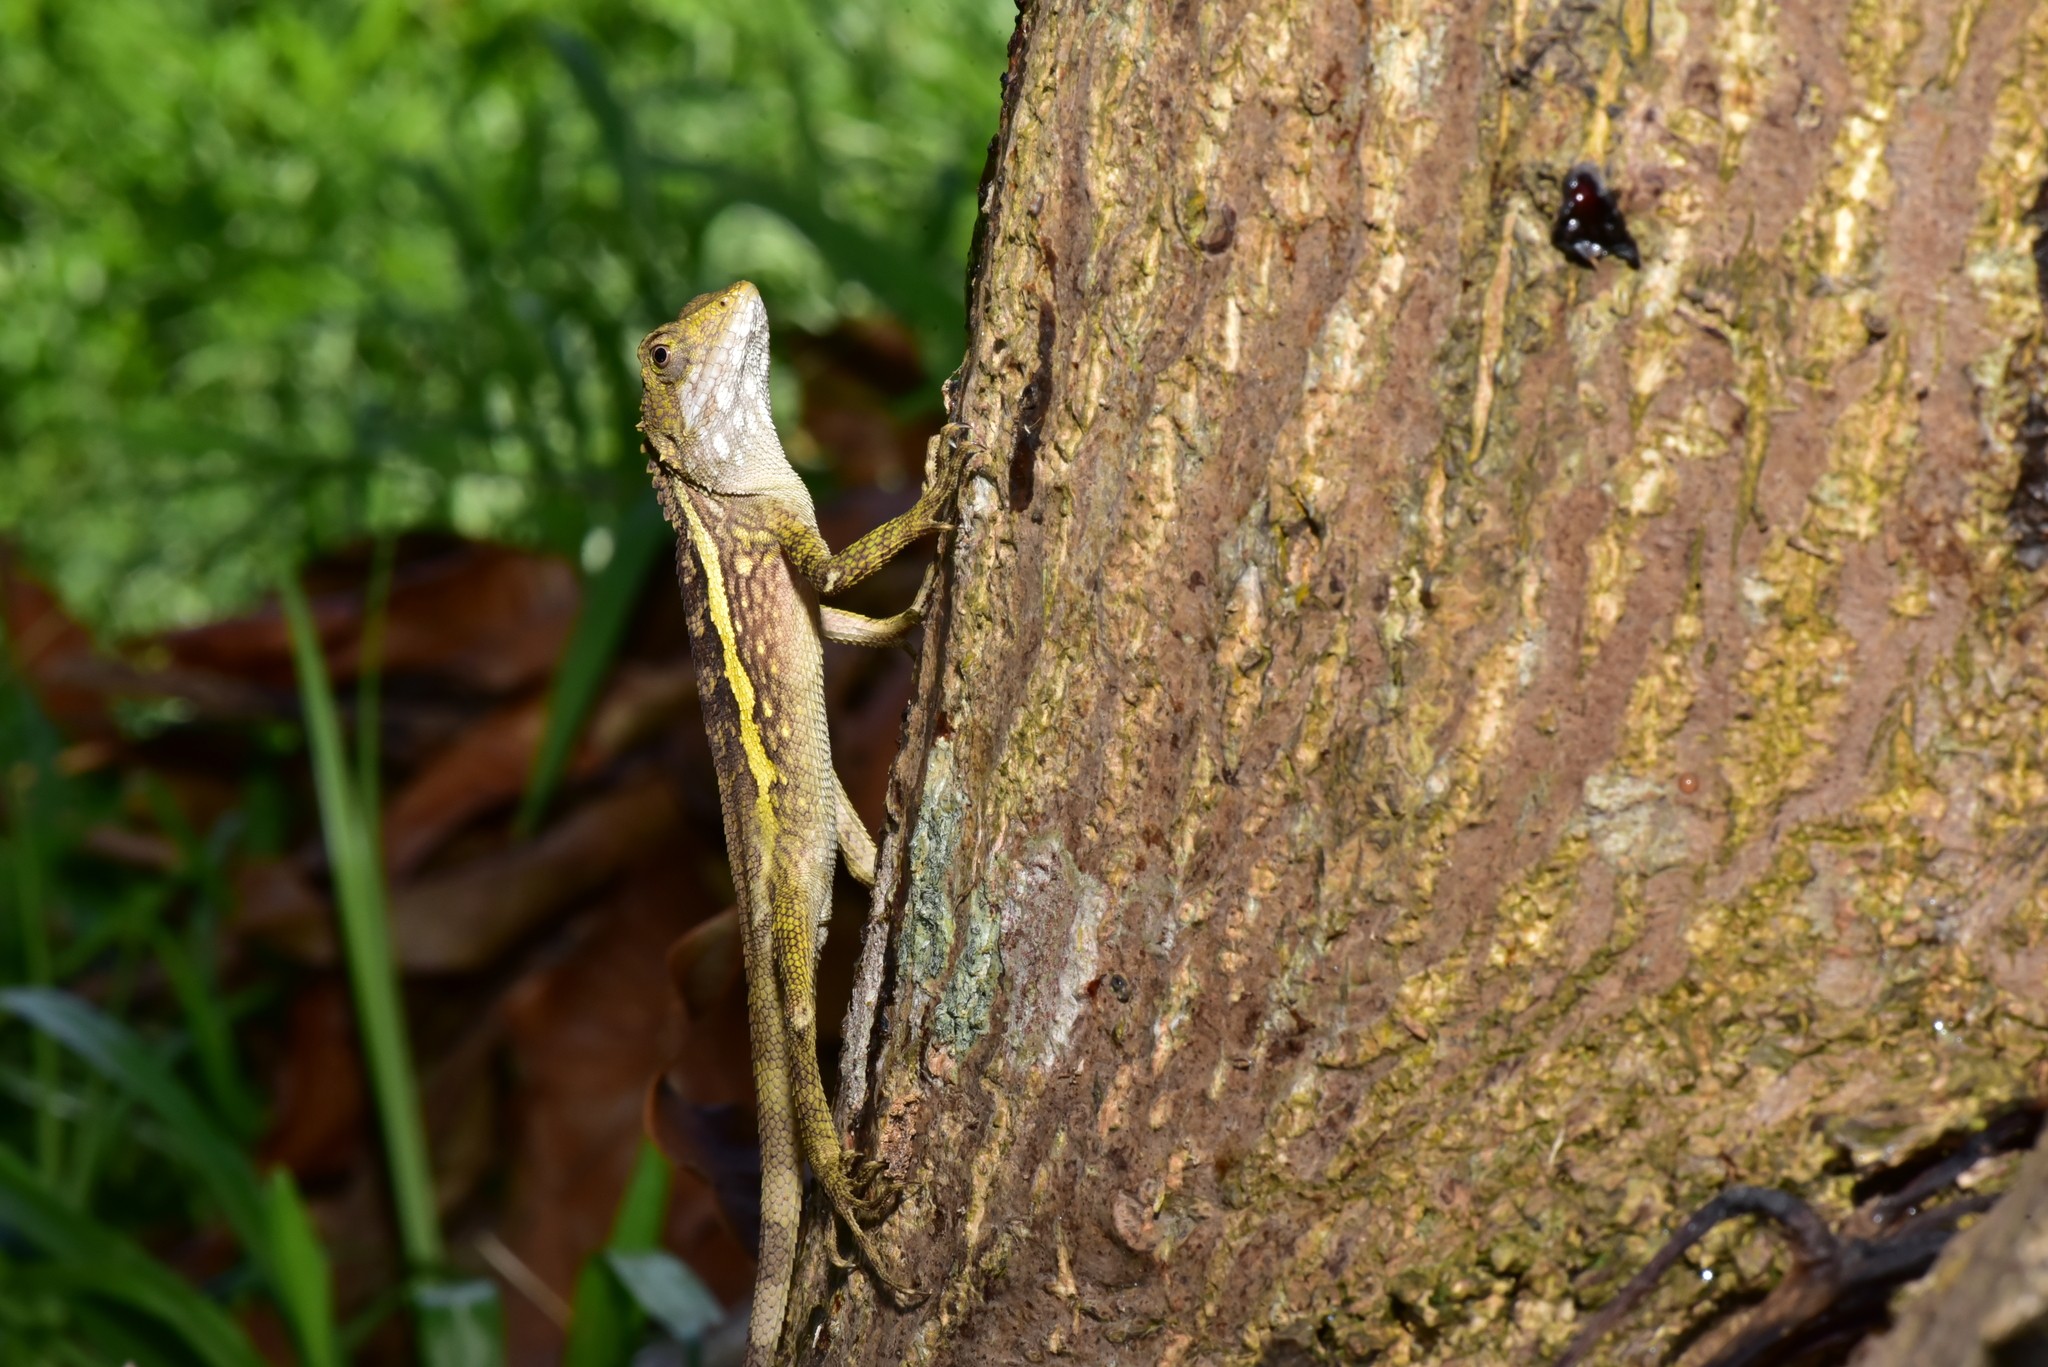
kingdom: Animalia
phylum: Chordata
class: Squamata
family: Agamidae
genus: Diploderma
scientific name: Diploderma swinhonis
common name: Taiwan japalure
